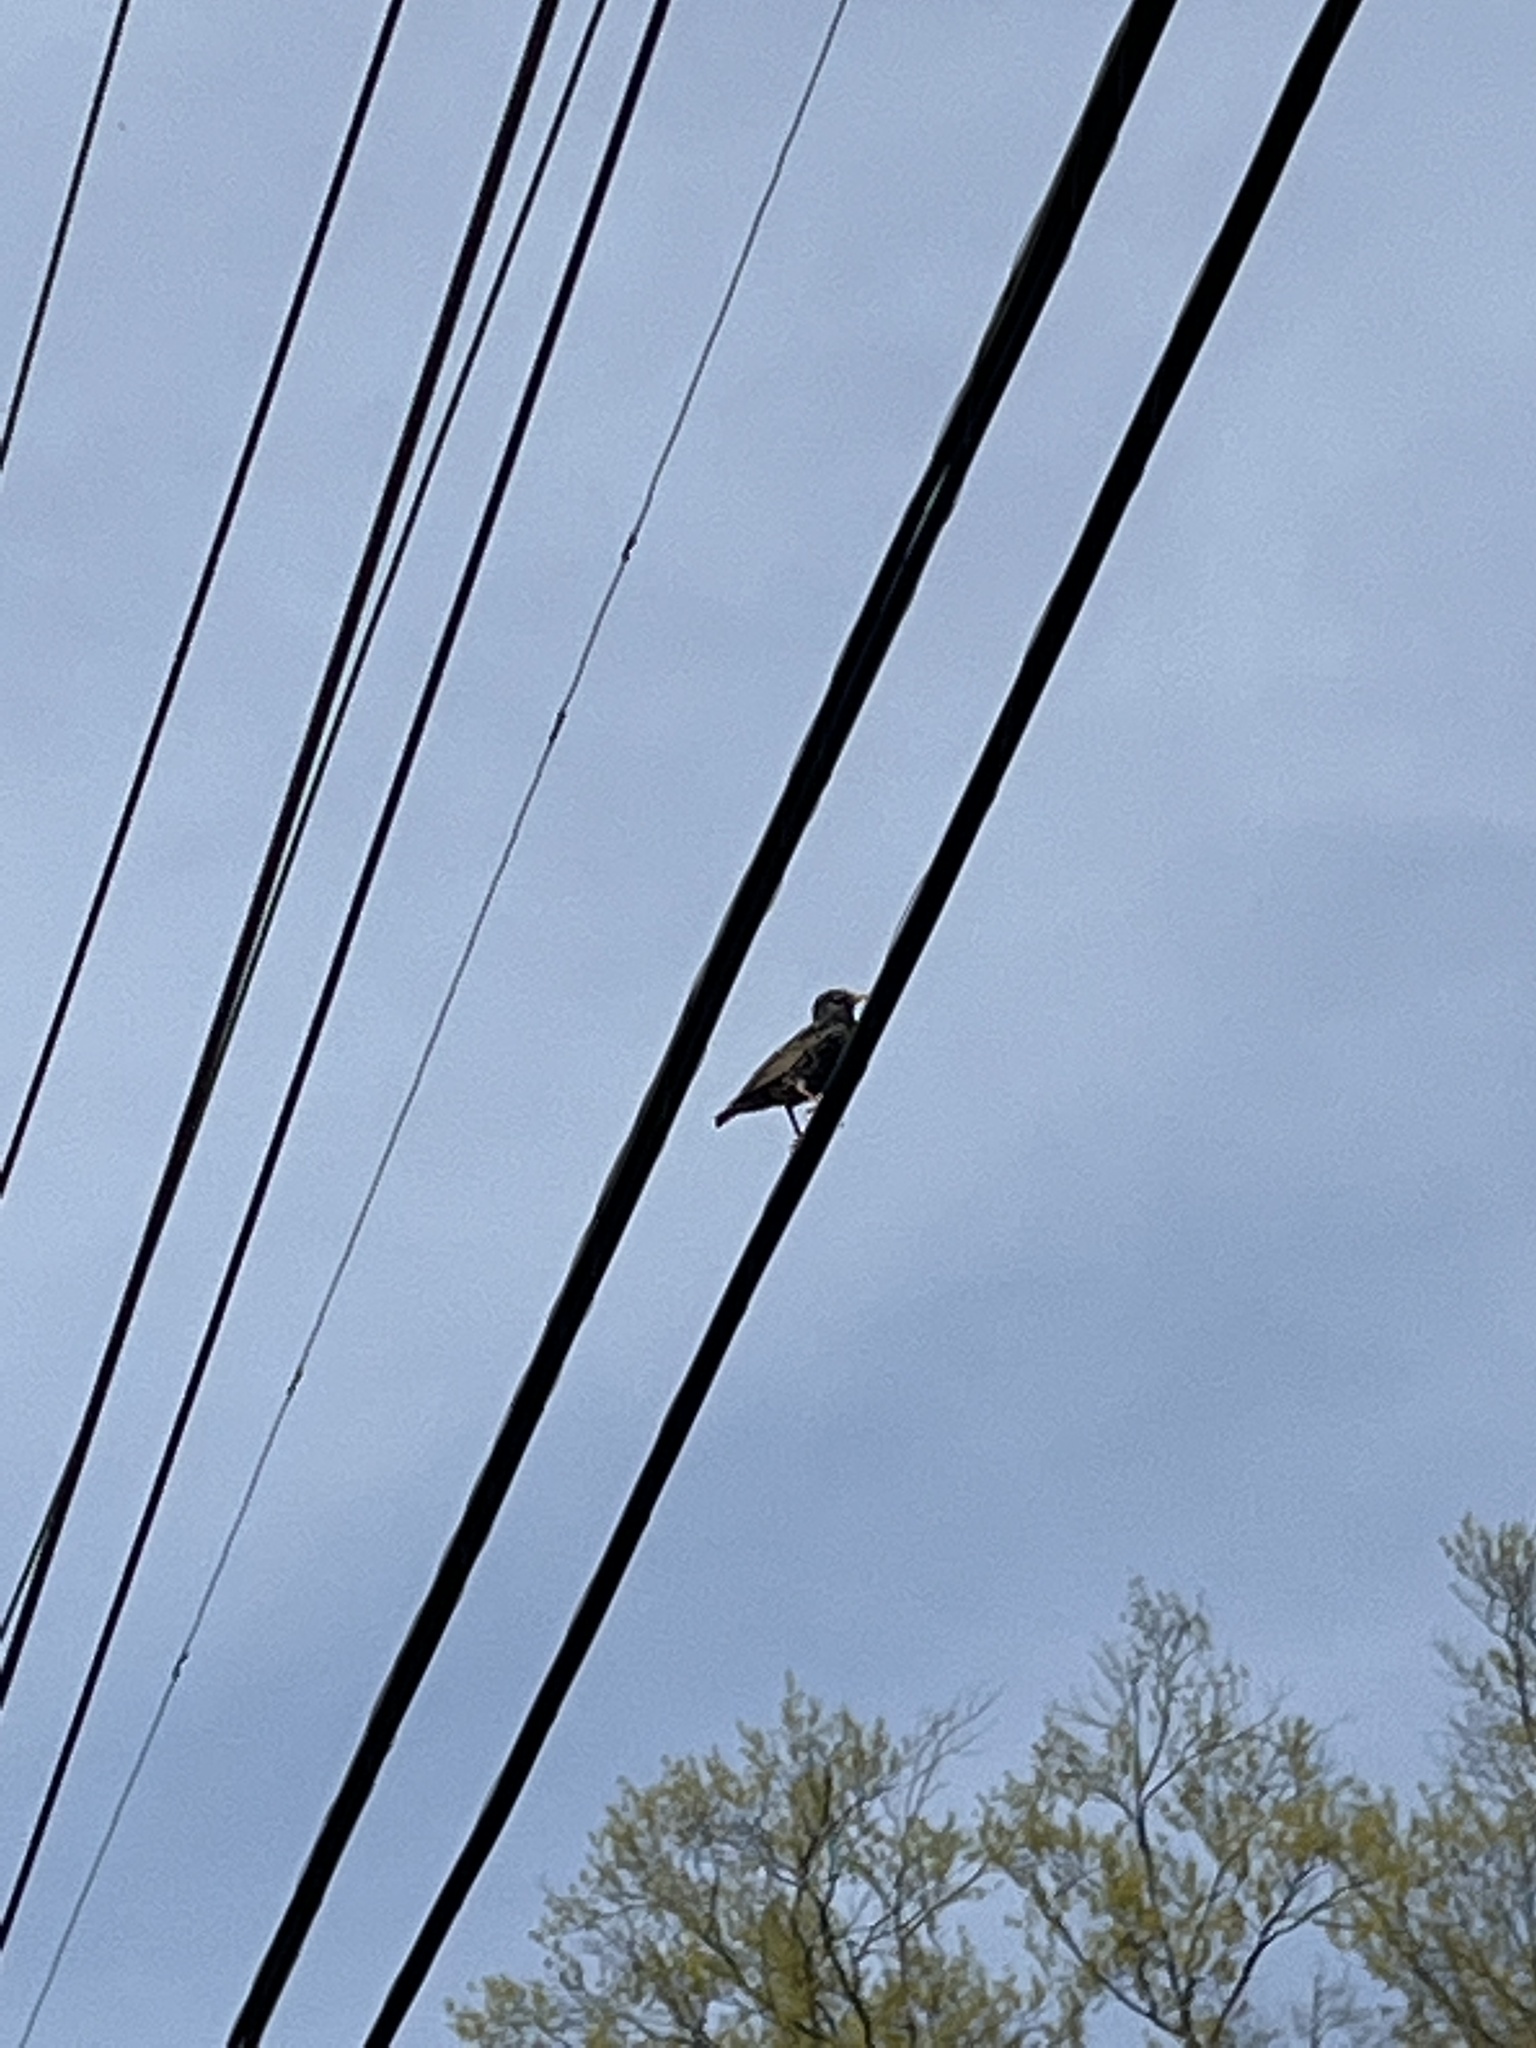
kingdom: Animalia
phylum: Chordata
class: Aves
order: Passeriformes
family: Sturnidae
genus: Sturnus
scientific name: Sturnus vulgaris
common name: Common starling
